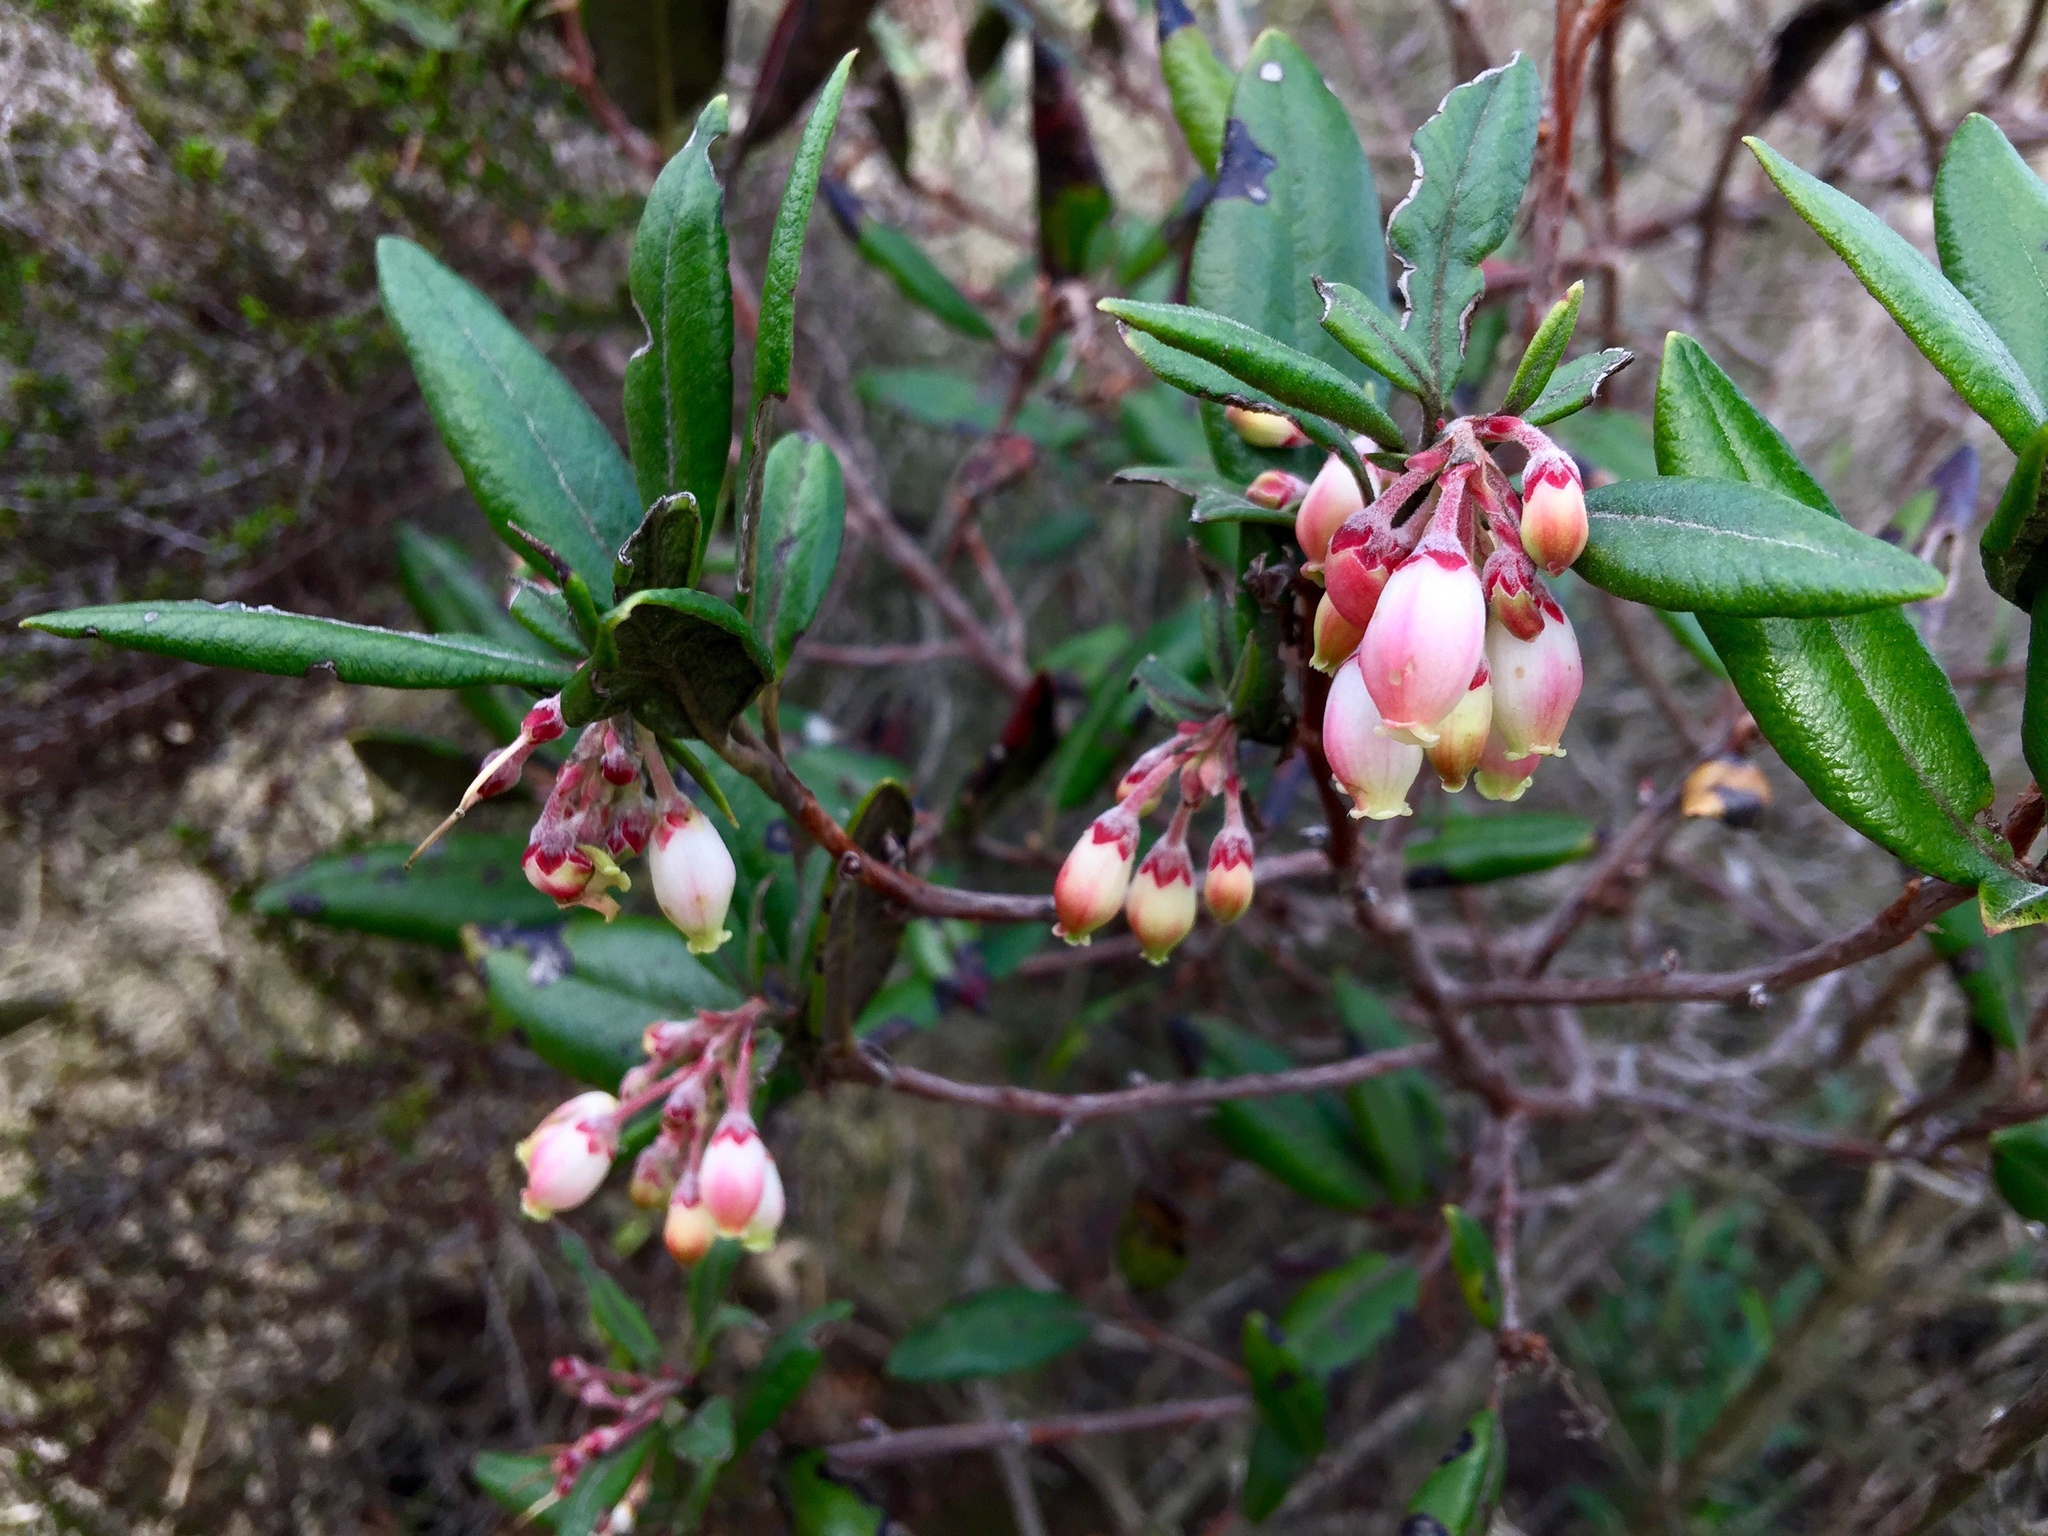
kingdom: Plantae
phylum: Tracheophyta
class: Magnoliopsida
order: Ericales
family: Ericaceae
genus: Arctostaphylos
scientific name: Arctostaphylos bicolor
